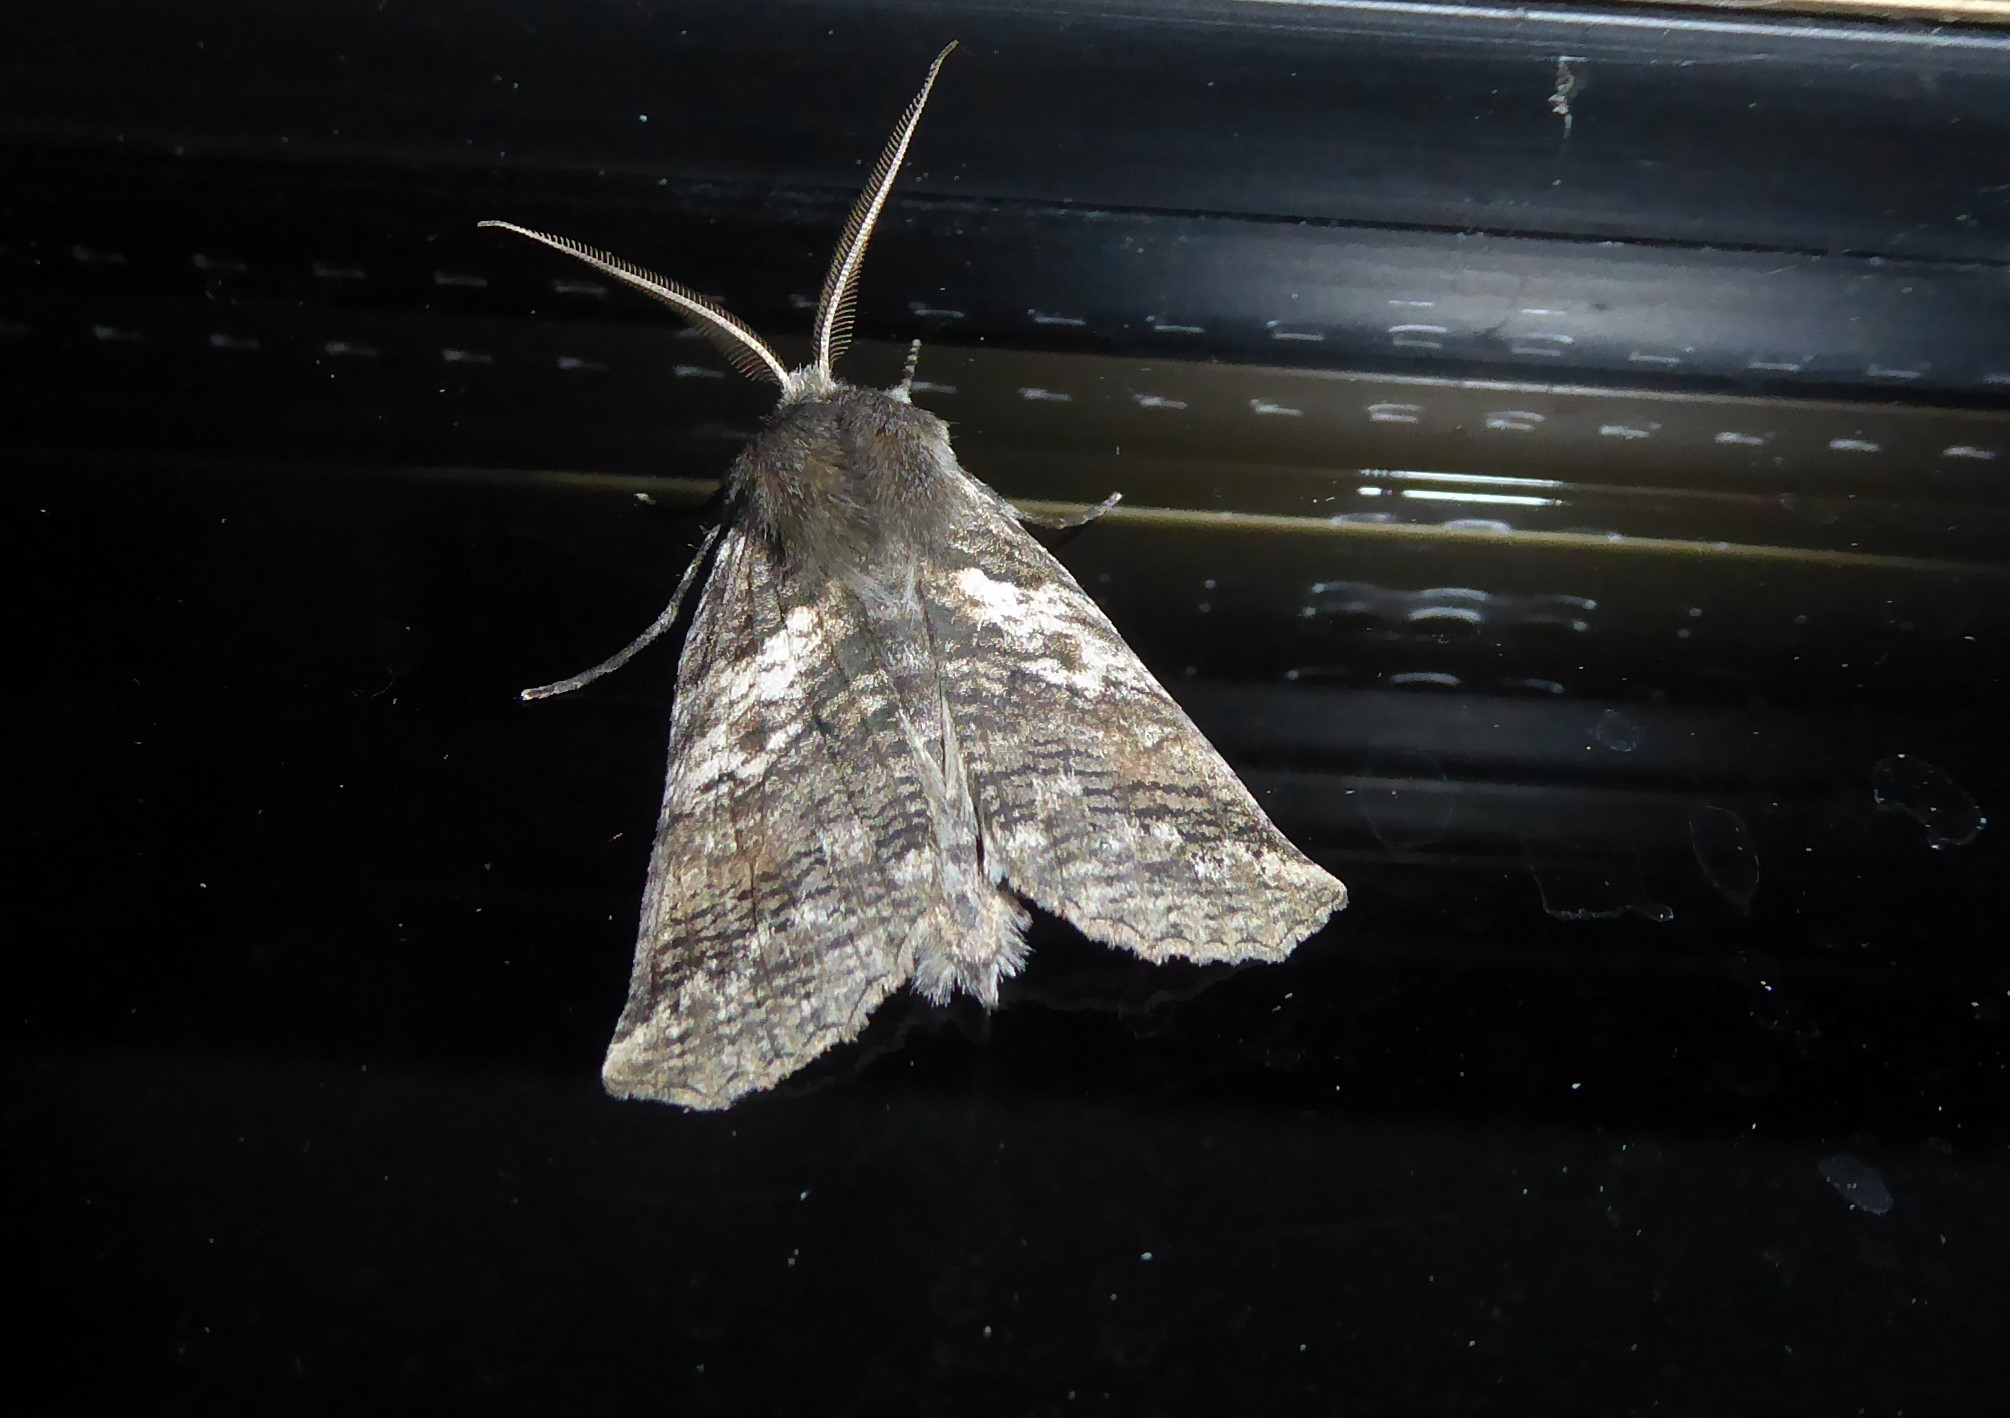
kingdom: Animalia
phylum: Arthropoda
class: Insecta
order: Lepidoptera
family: Geometridae
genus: Declana
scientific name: Declana
